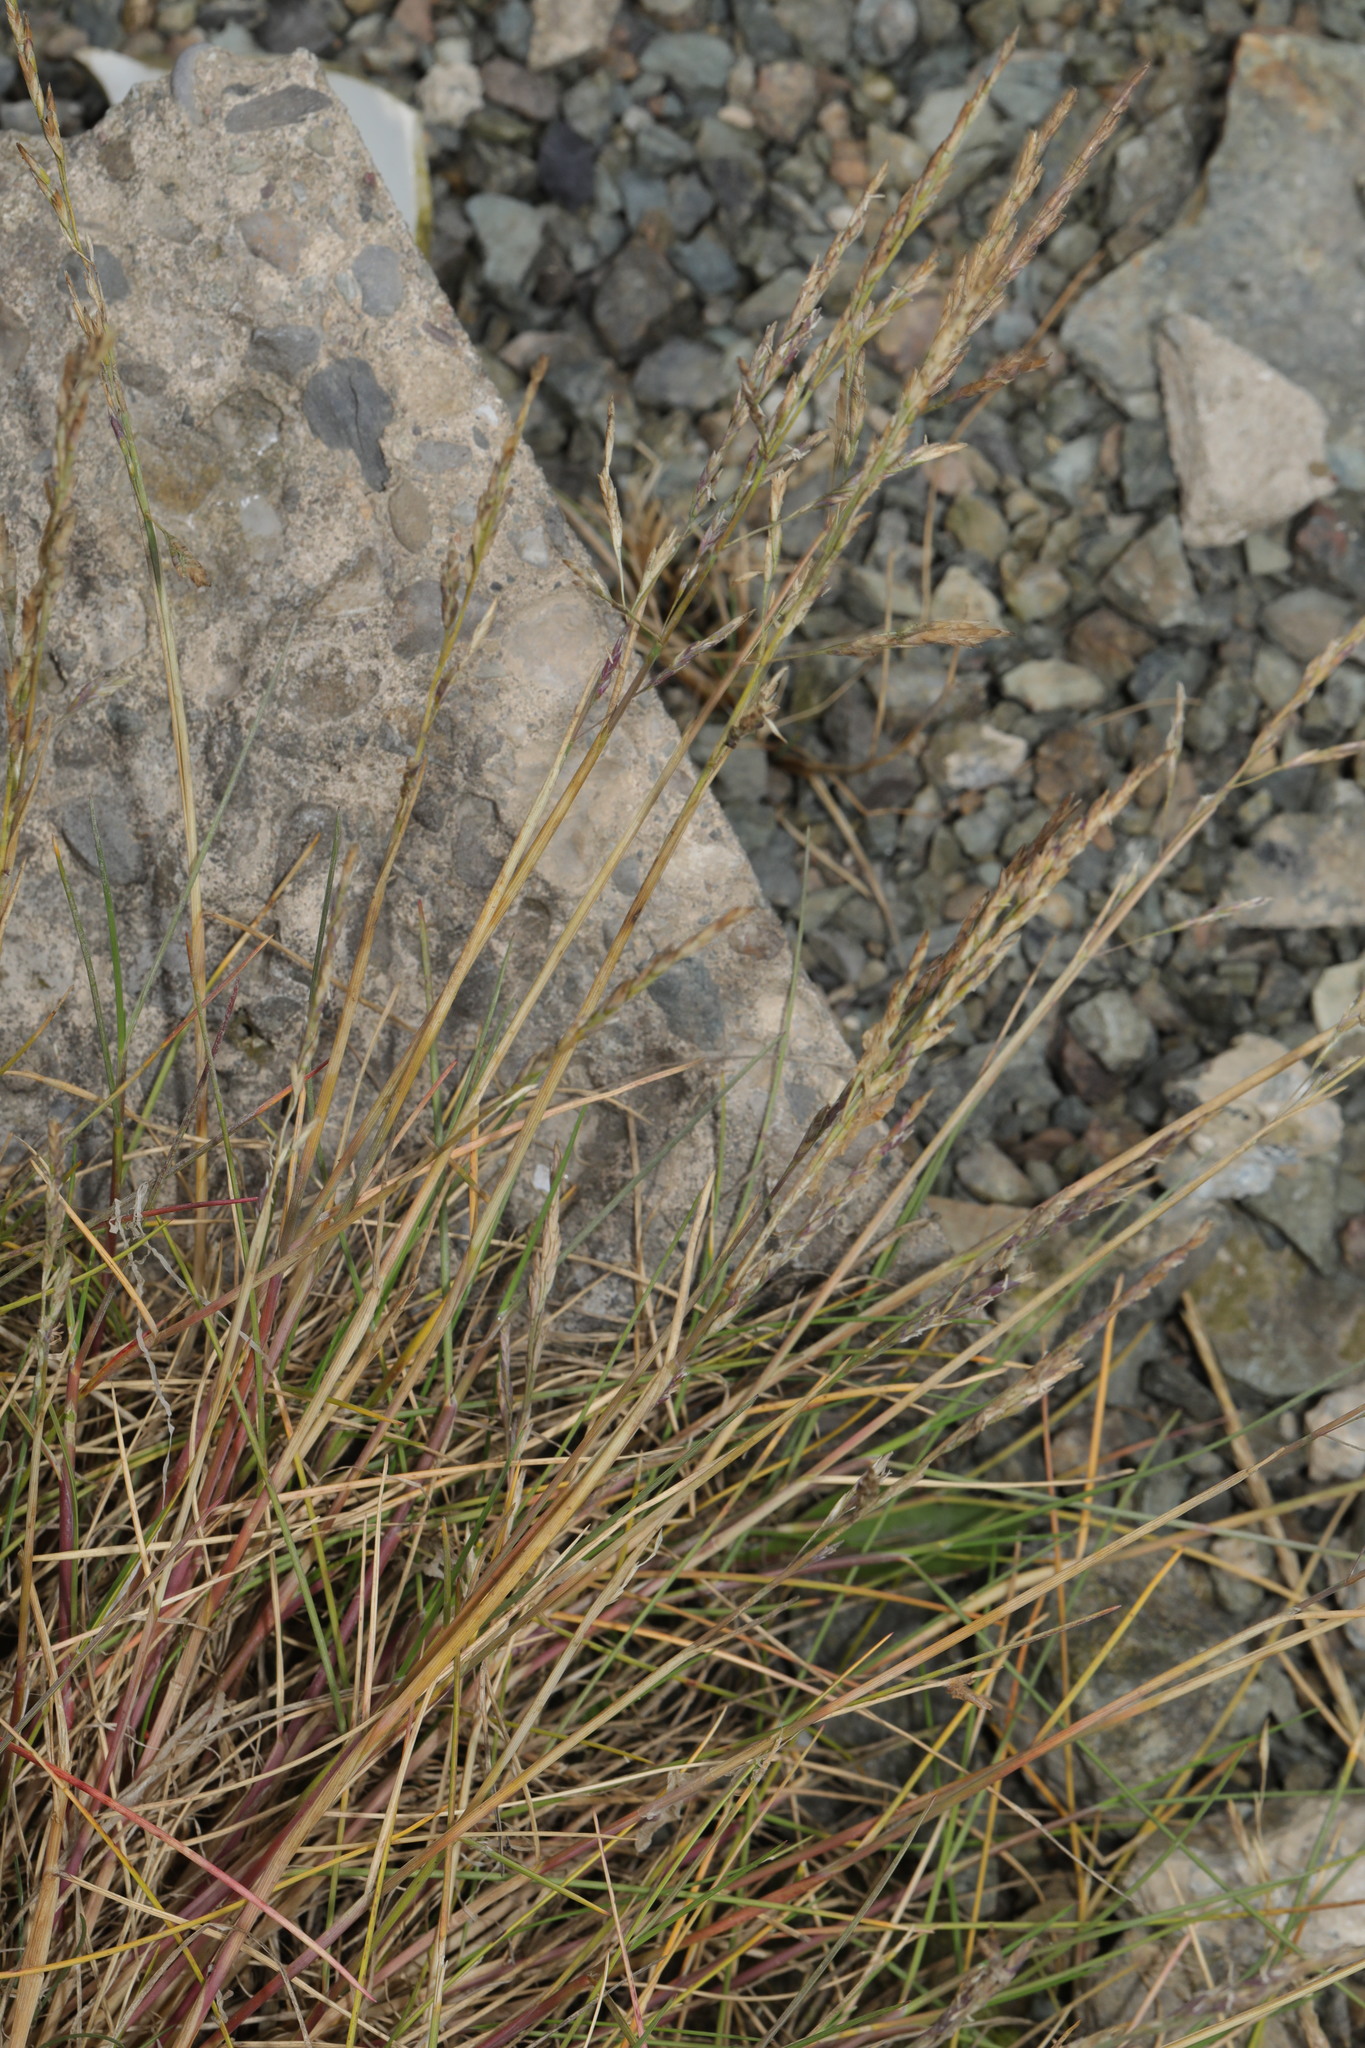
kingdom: Plantae
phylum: Tracheophyta
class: Liliopsida
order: Poales
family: Poaceae
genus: Agrostis
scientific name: Agrostis stolonifera
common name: Creeping bentgrass
